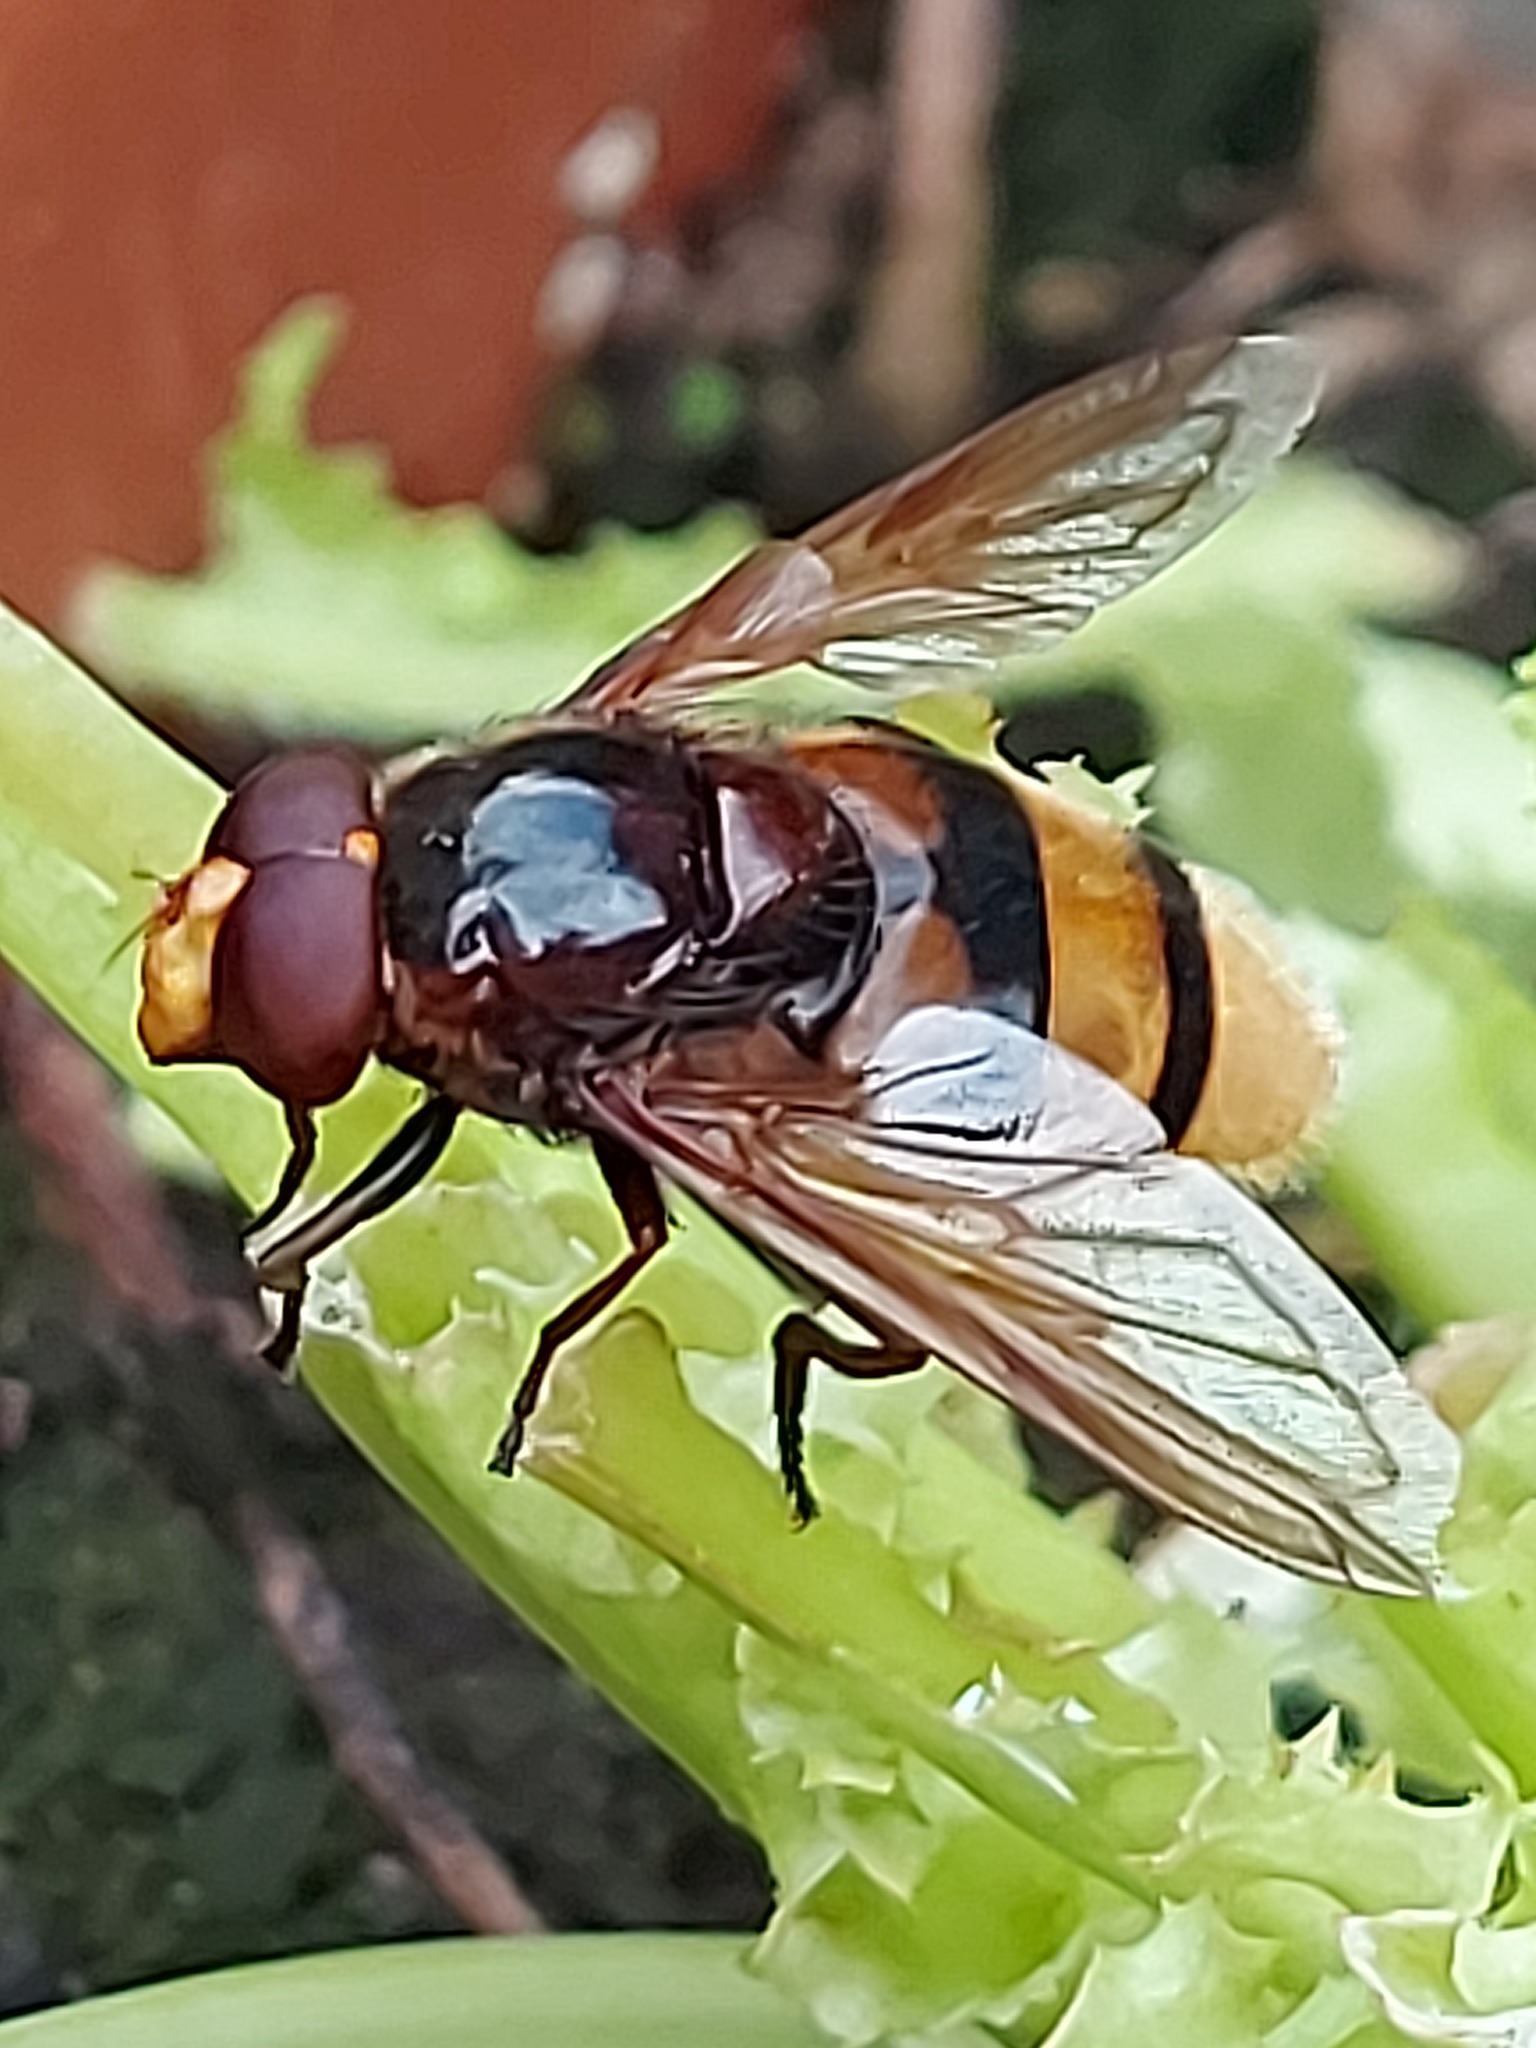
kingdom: Animalia
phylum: Arthropoda
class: Insecta
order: Diptera
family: Syrphidae
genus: Volucella
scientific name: Volucella zonaria
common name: Hornet hoverfly
